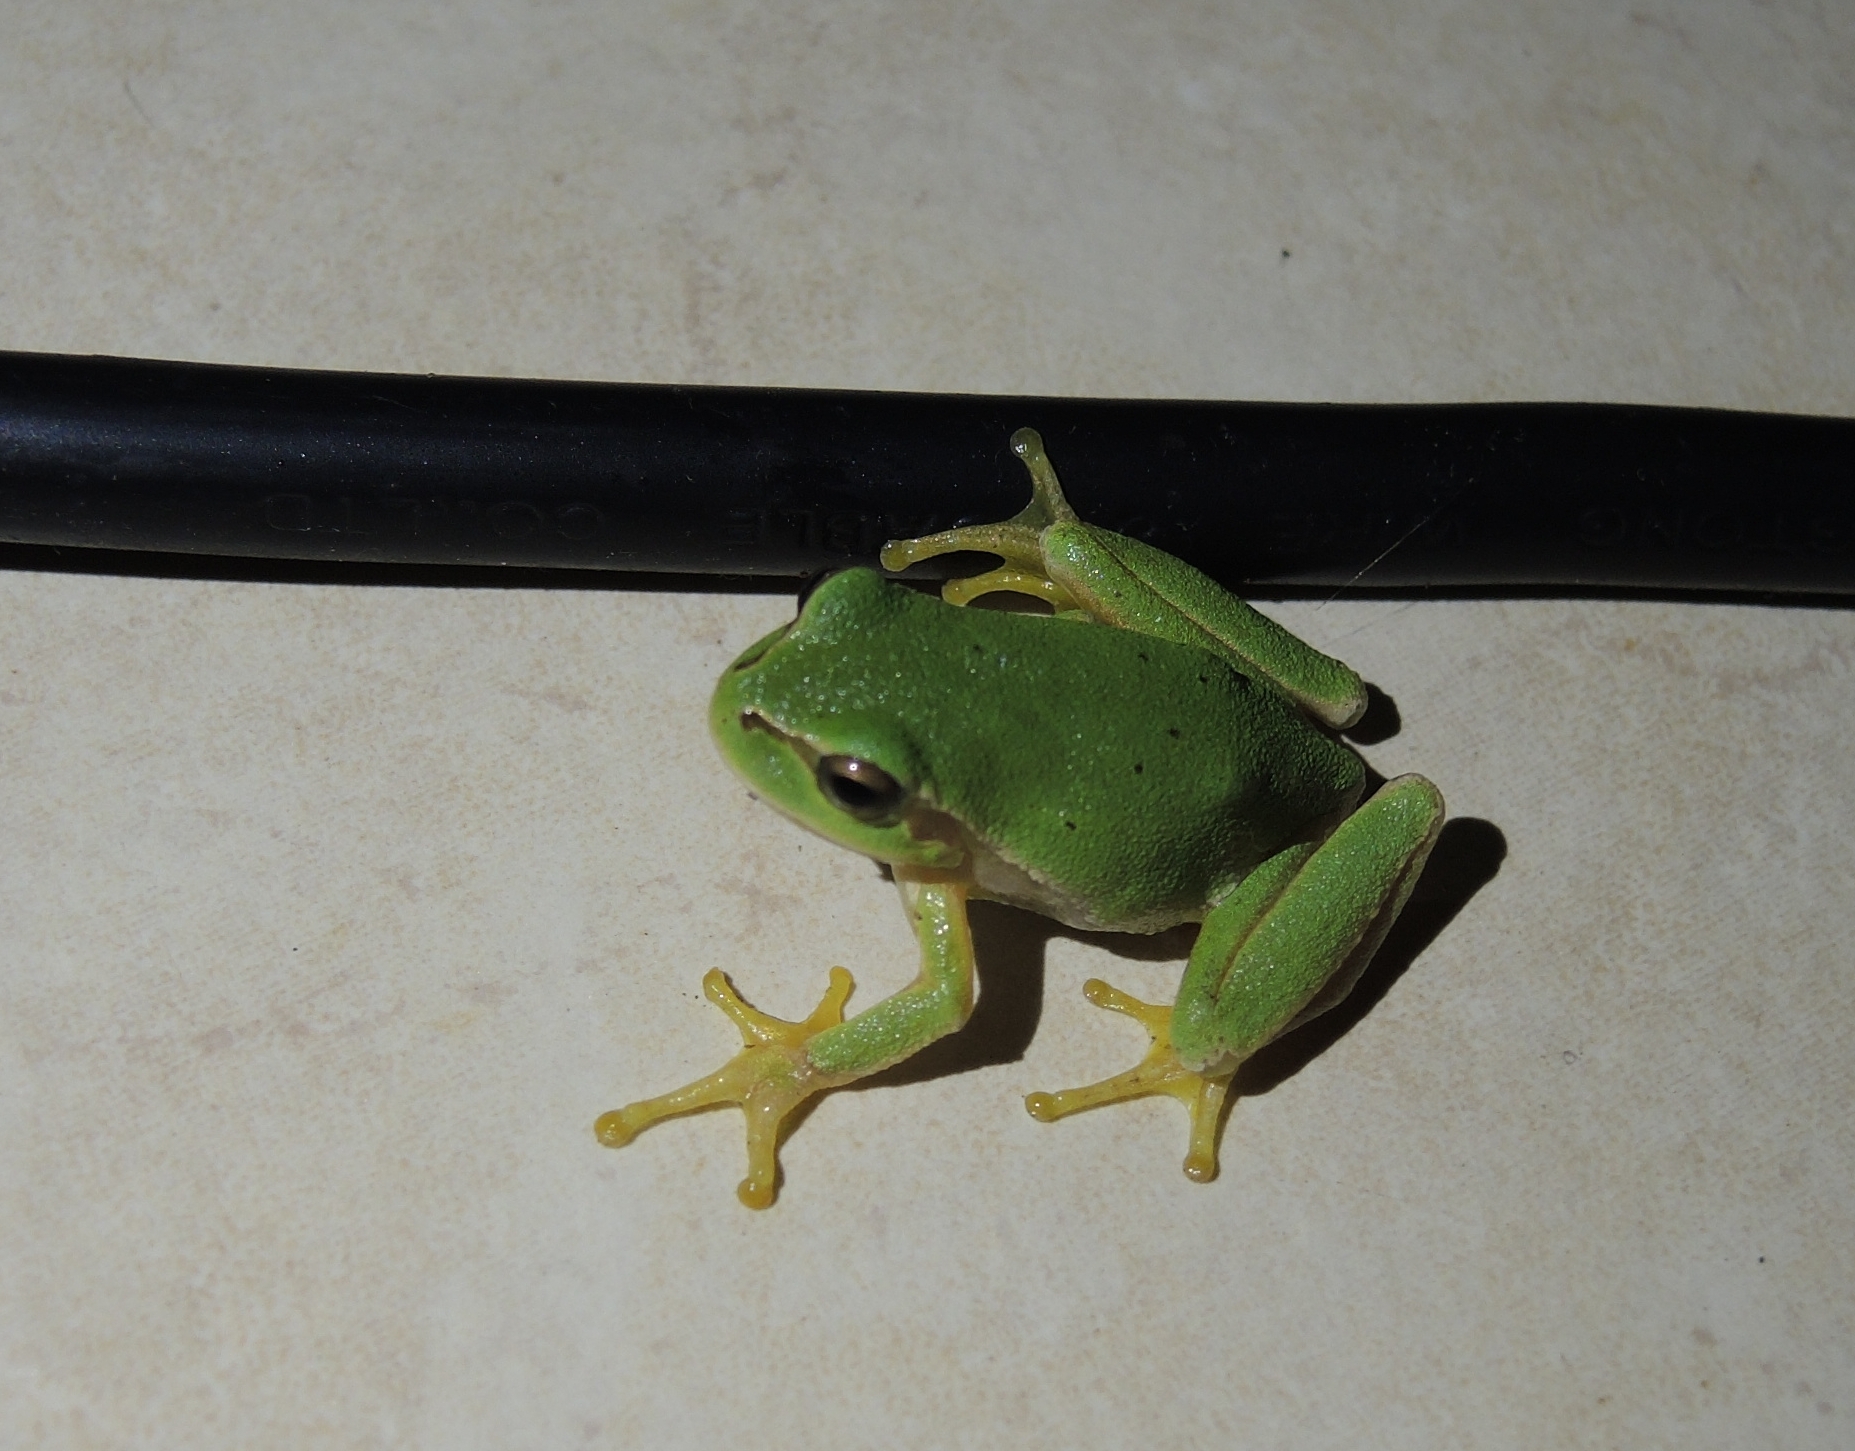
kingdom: Animalia
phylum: Chordata
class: Amphibia
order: Anura
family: Hylidae
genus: Hyla
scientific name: Hyla orientalis
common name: Caucasian treefrog
